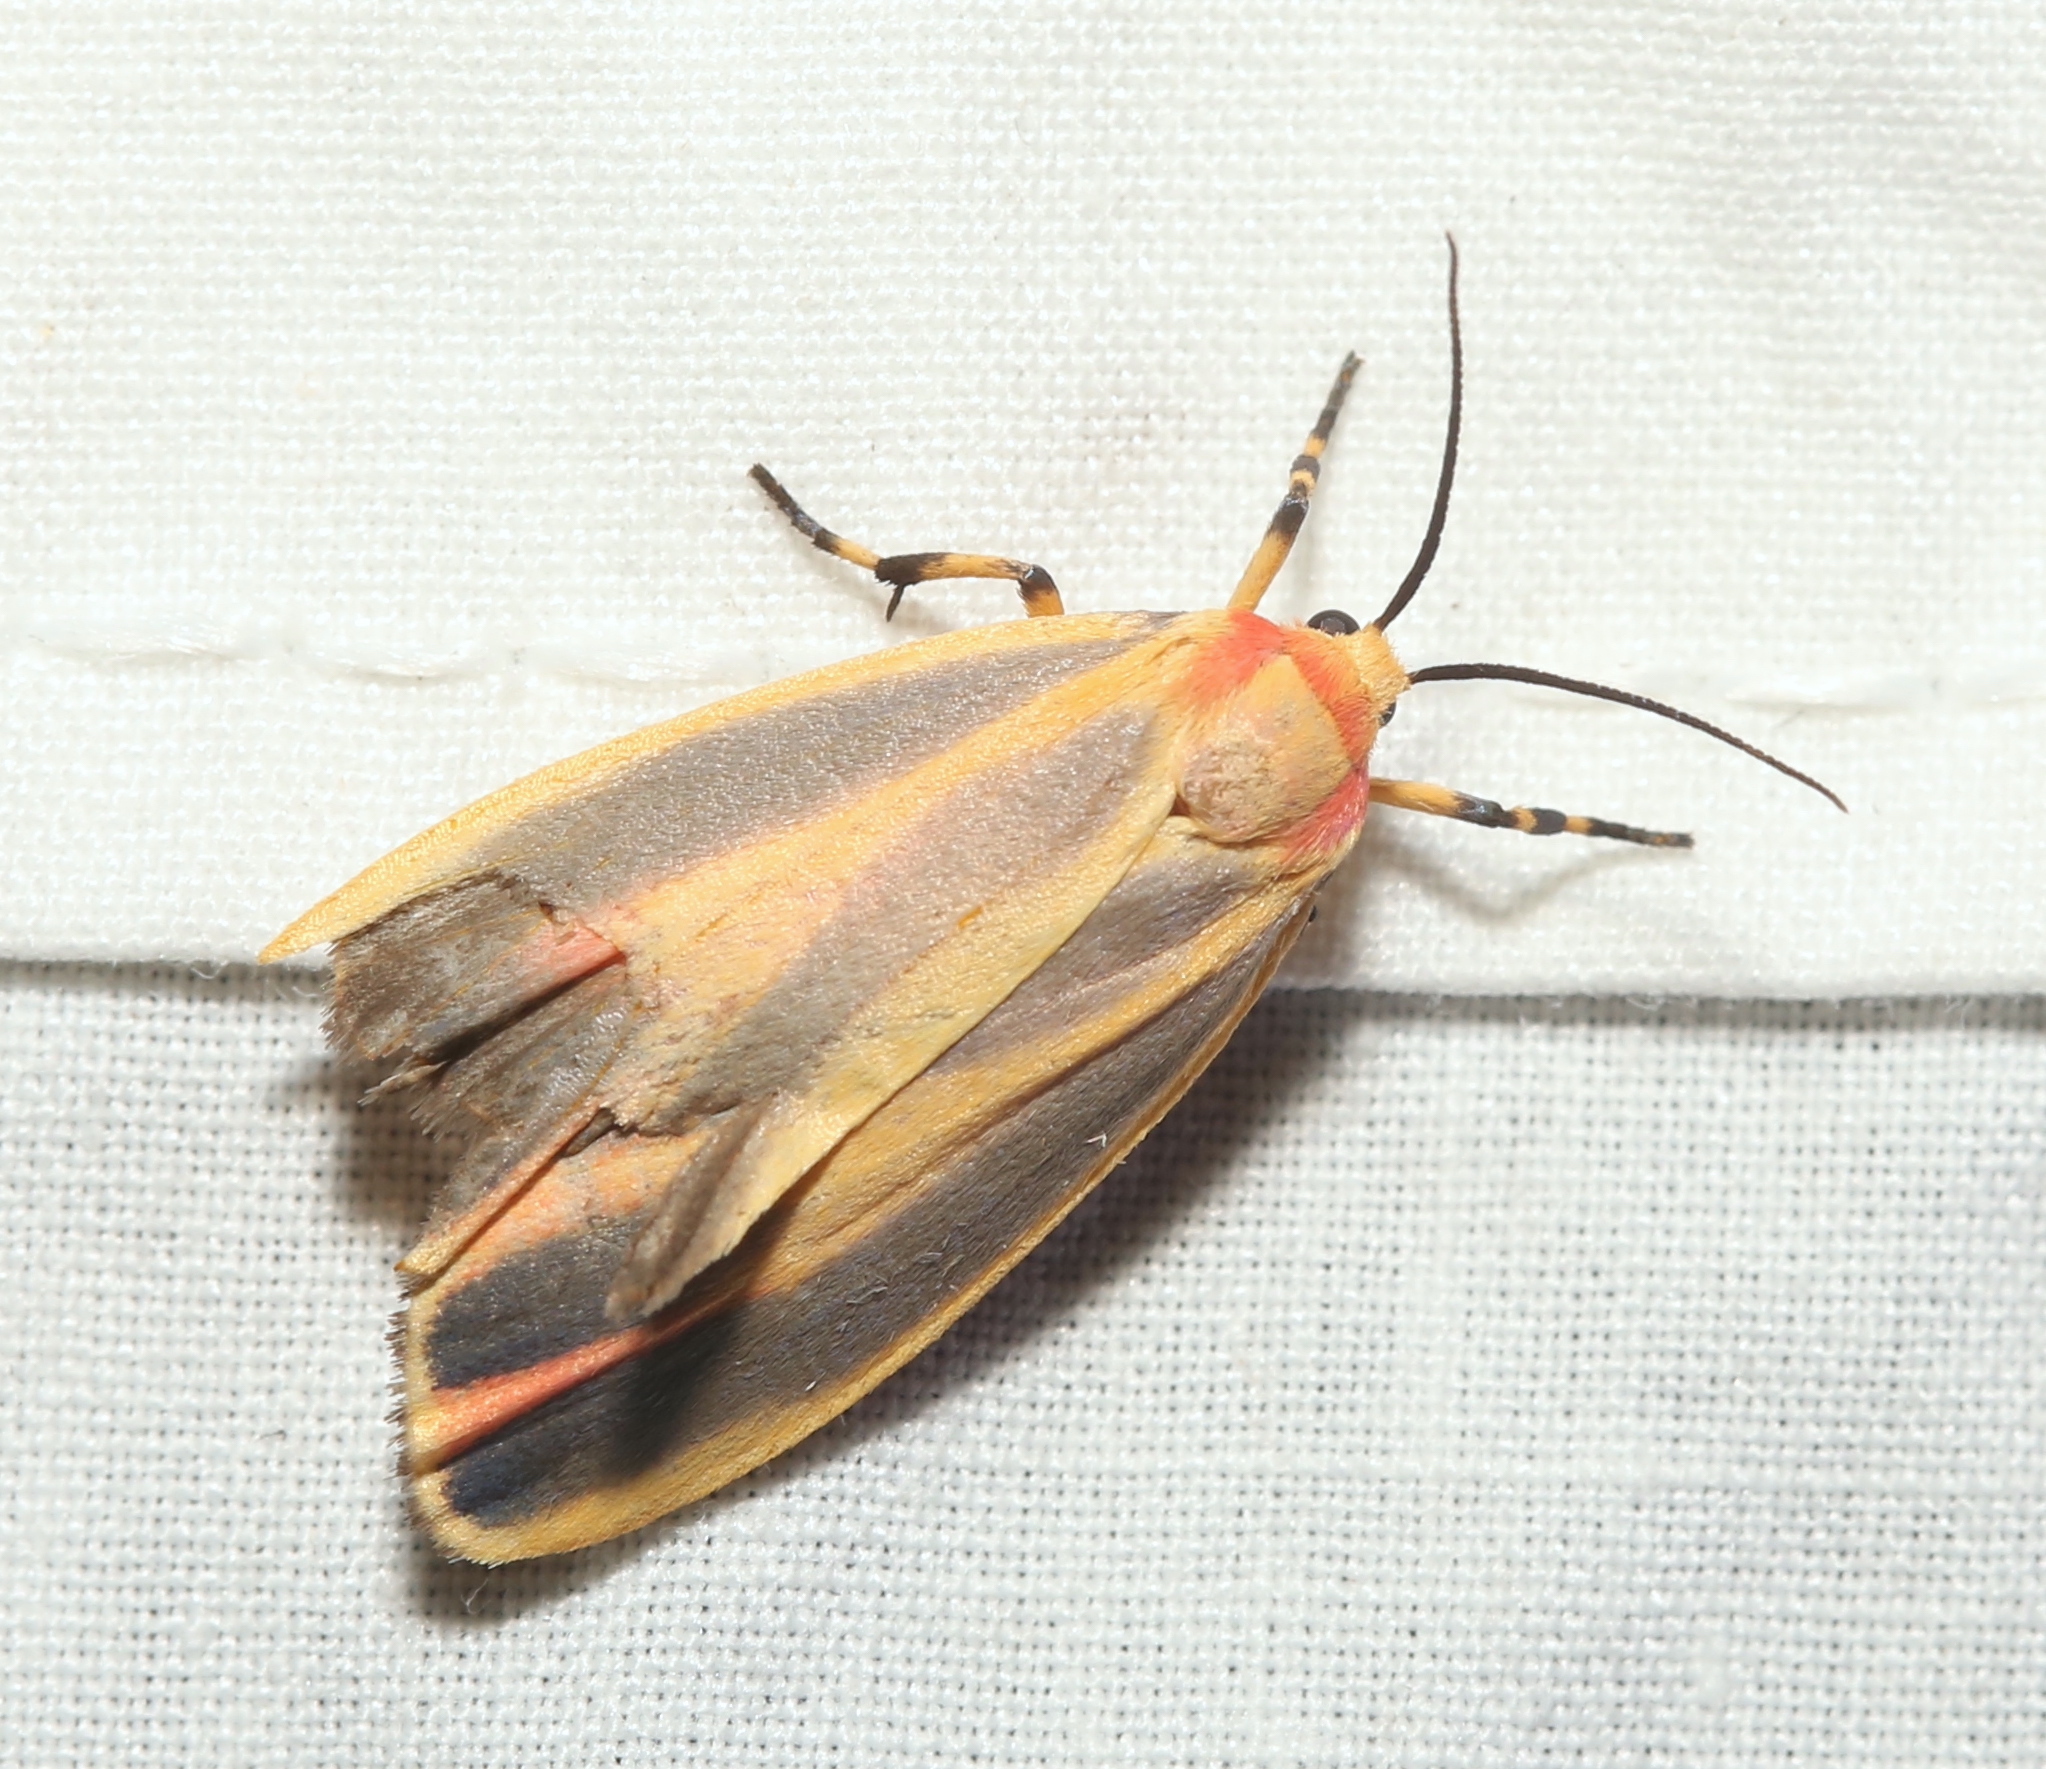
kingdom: Animalia
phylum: Arthropoda
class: Insecta
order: Lepidoptera
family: Erebidae
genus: Hypoprepia
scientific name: Hypoprepia fucosa
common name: Painted lichen moth
